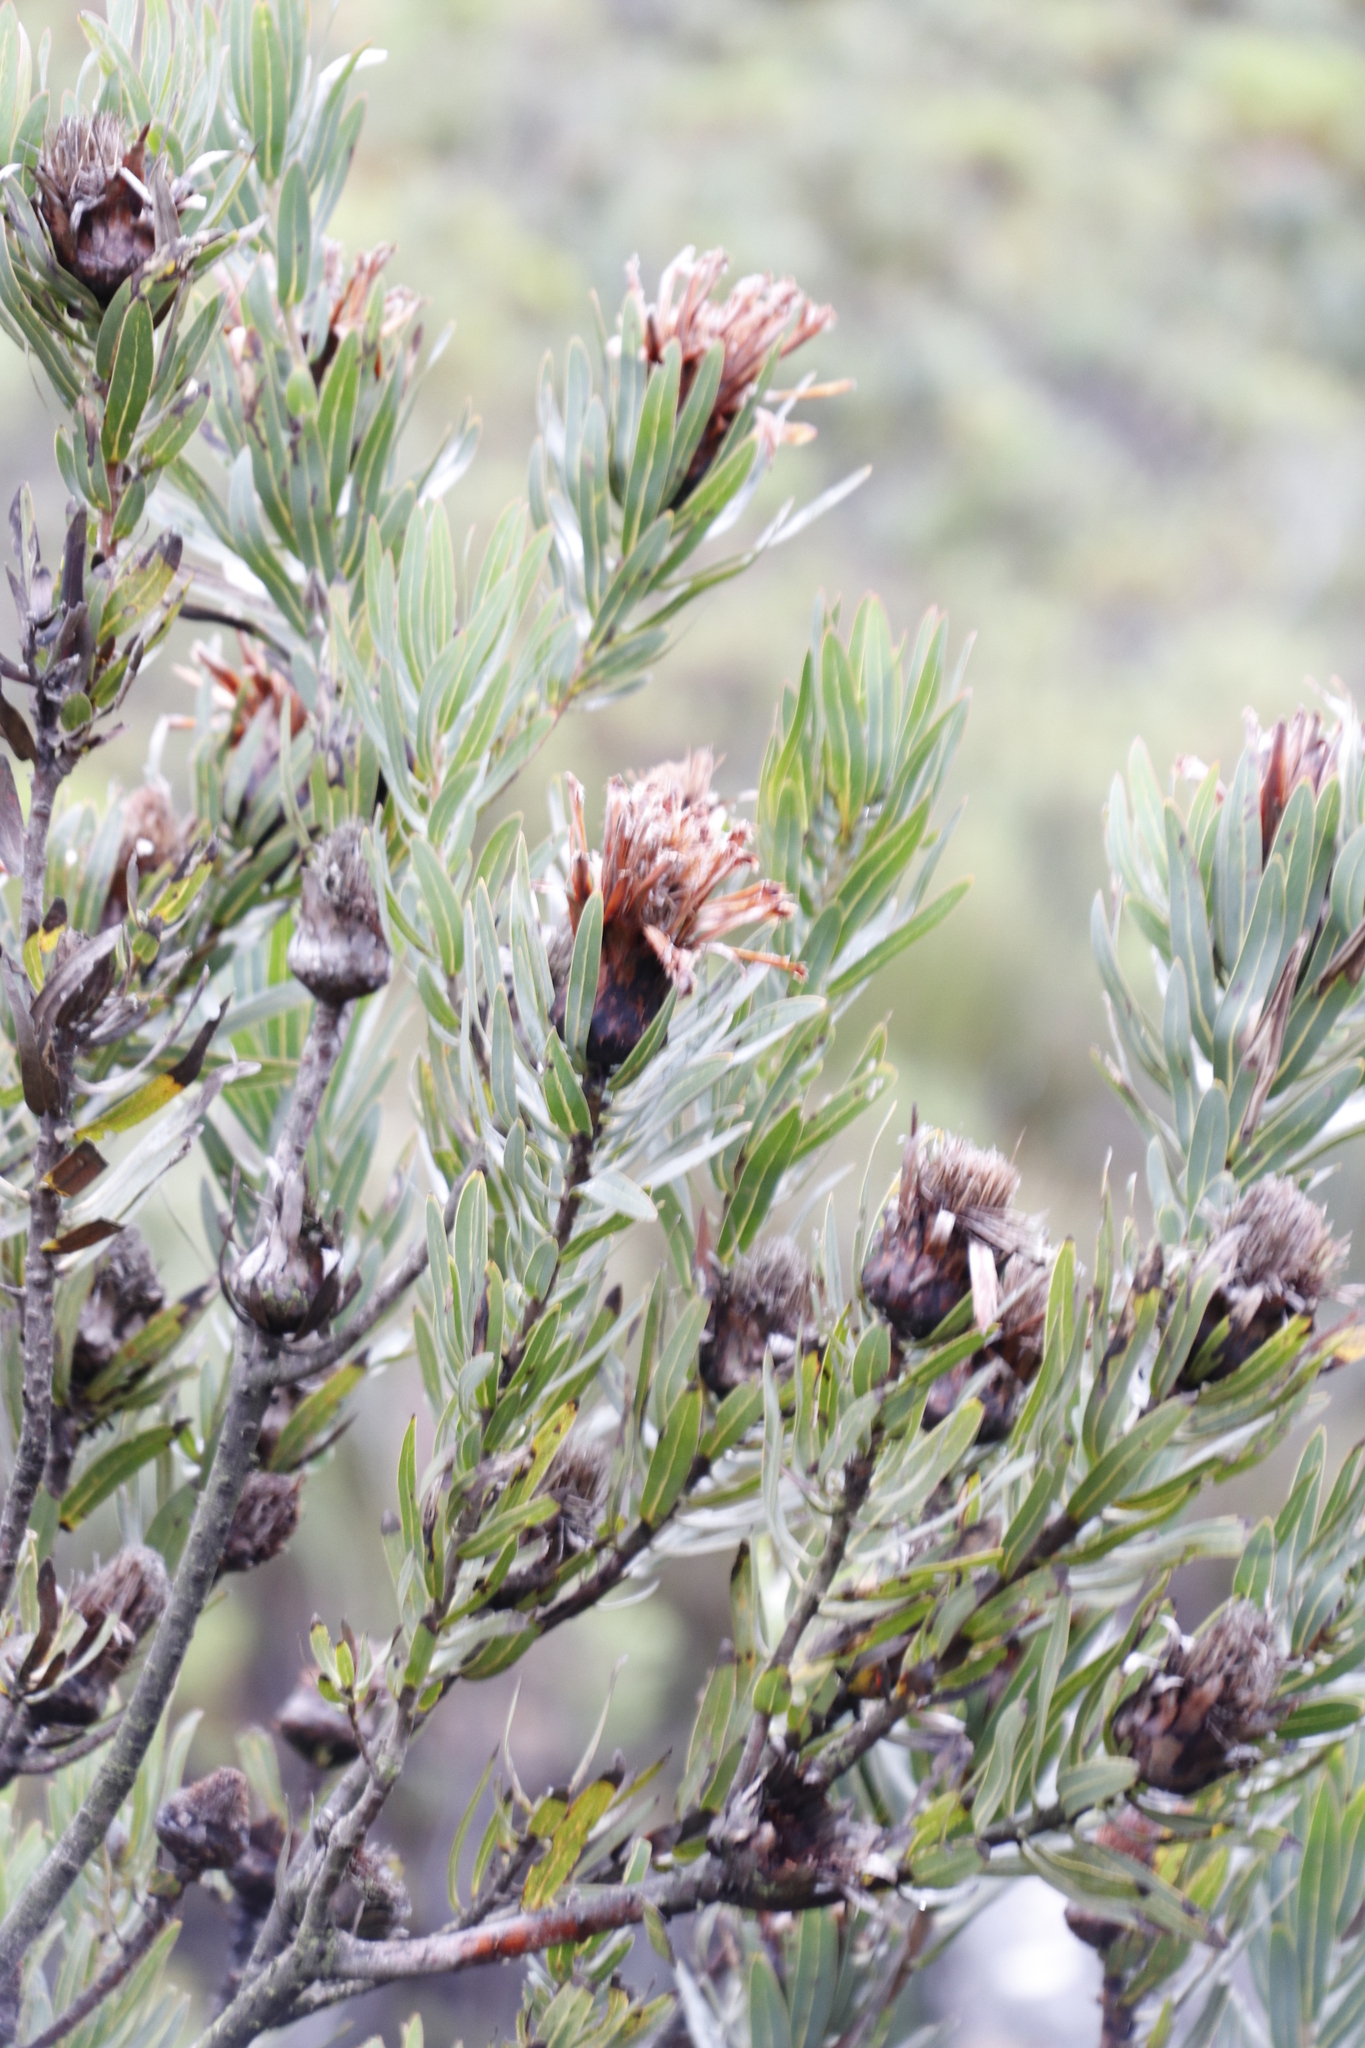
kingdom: Plantae
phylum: Tracheophyta
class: Magnoliopsida
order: Proteales
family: Proteaceae
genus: Protea
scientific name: Protea neriifolia
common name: Blue sugarbush
